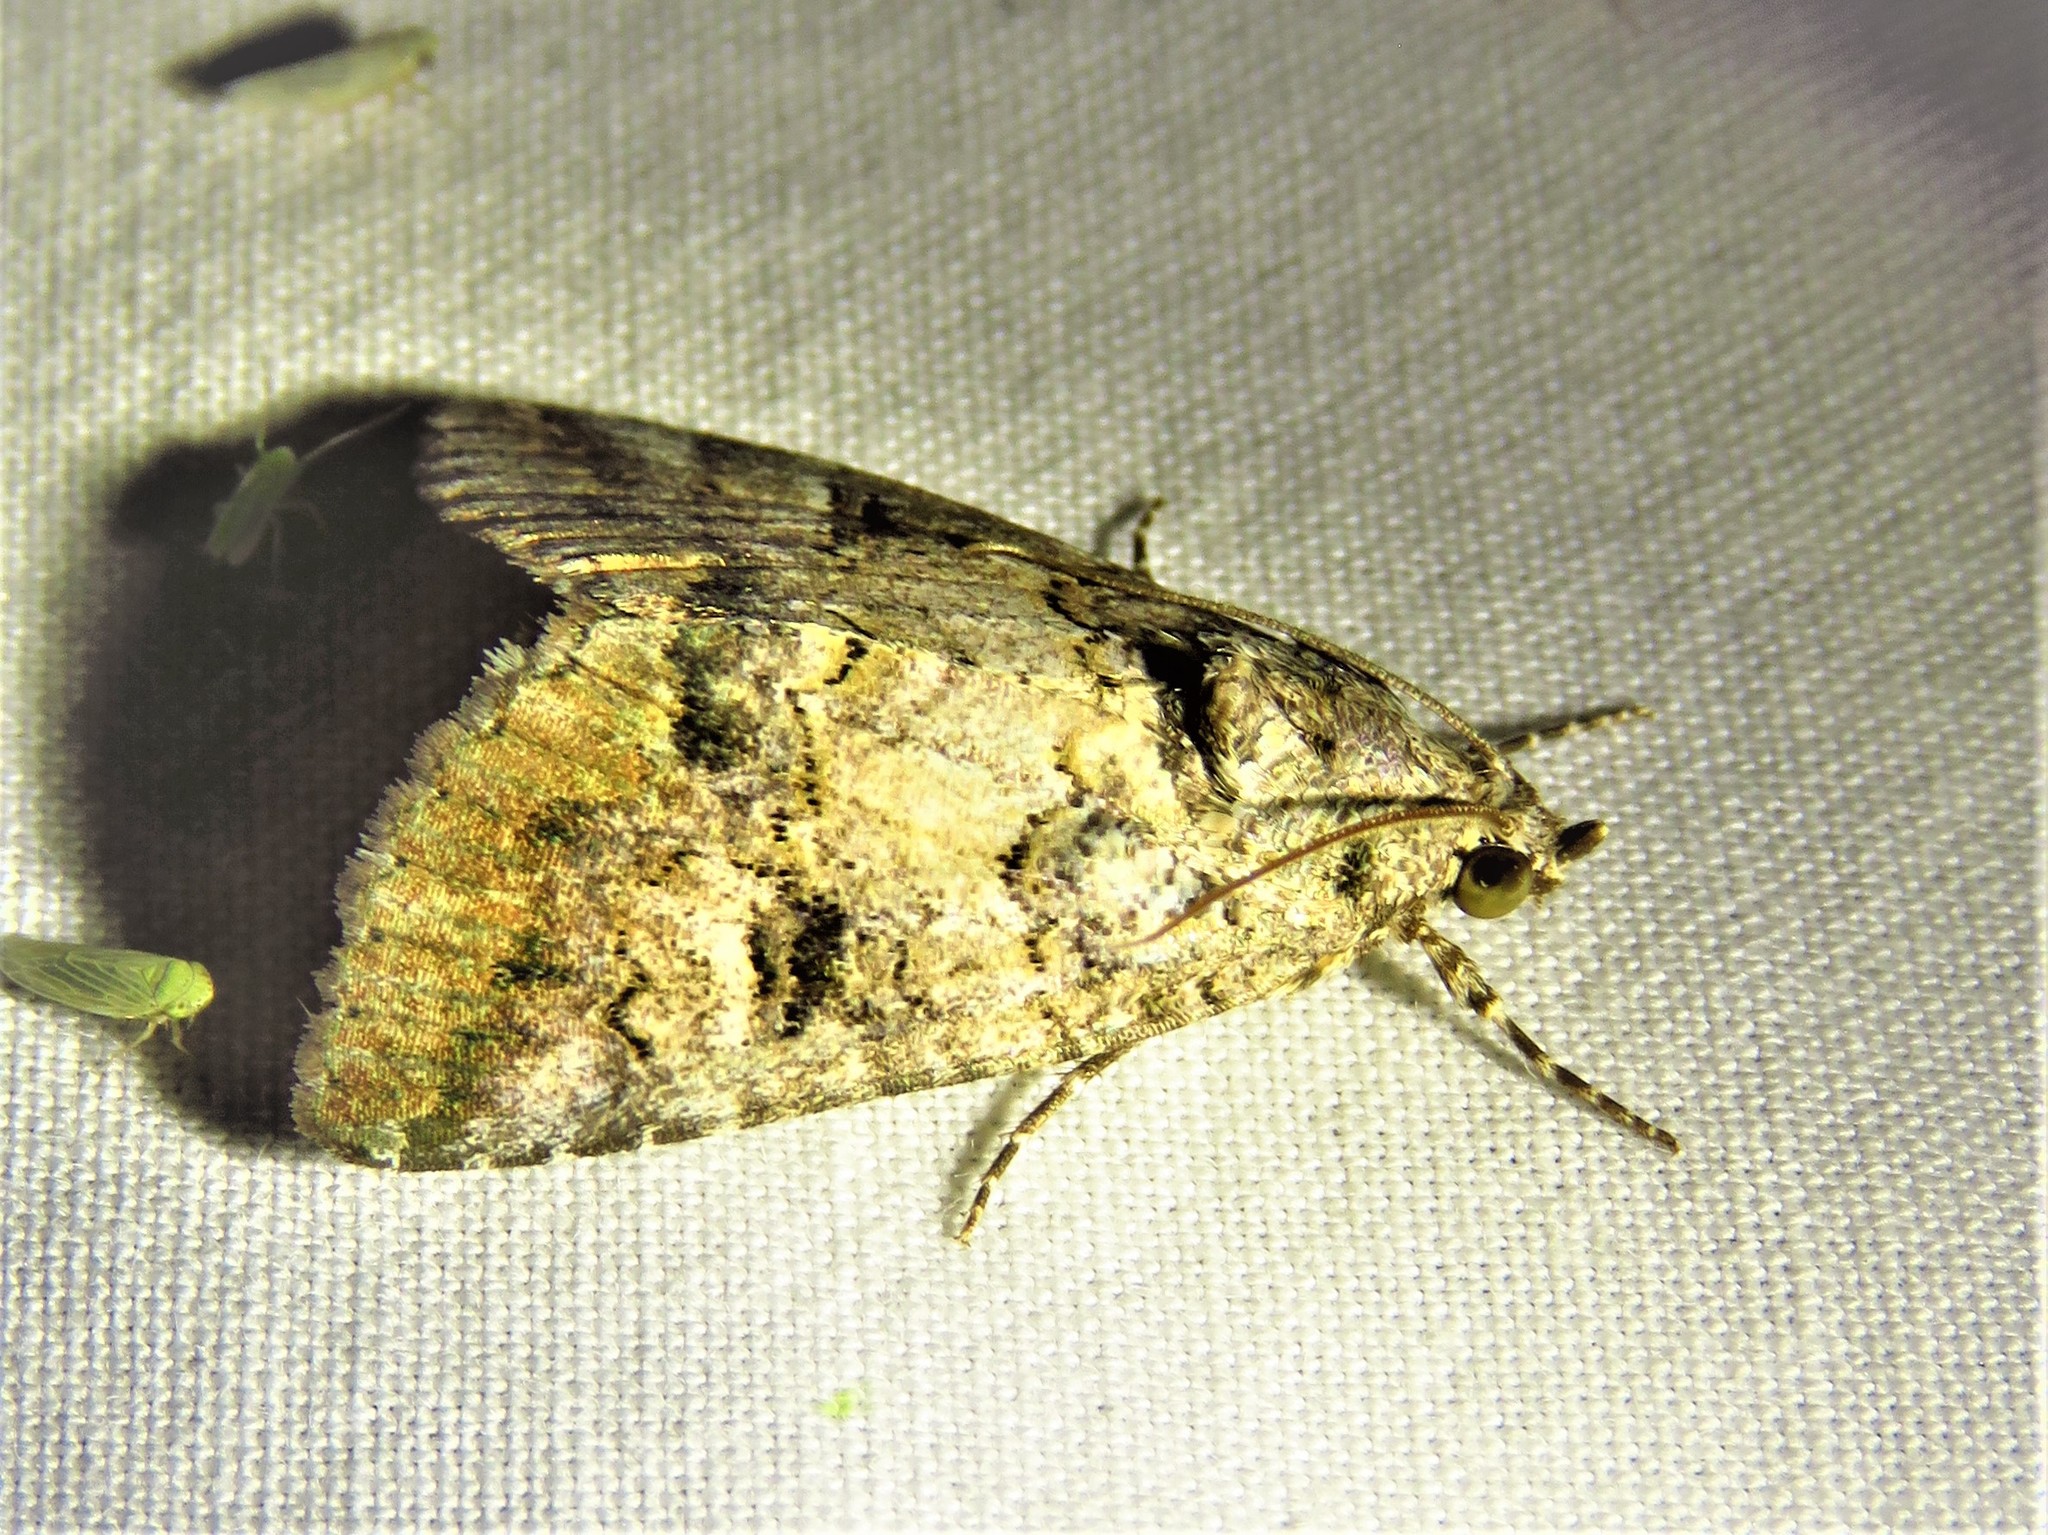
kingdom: Animalia
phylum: Arthropoda
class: Insecta
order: Lepidoptera
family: Erebidae
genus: Eubolina
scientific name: Eubolina impartialis
